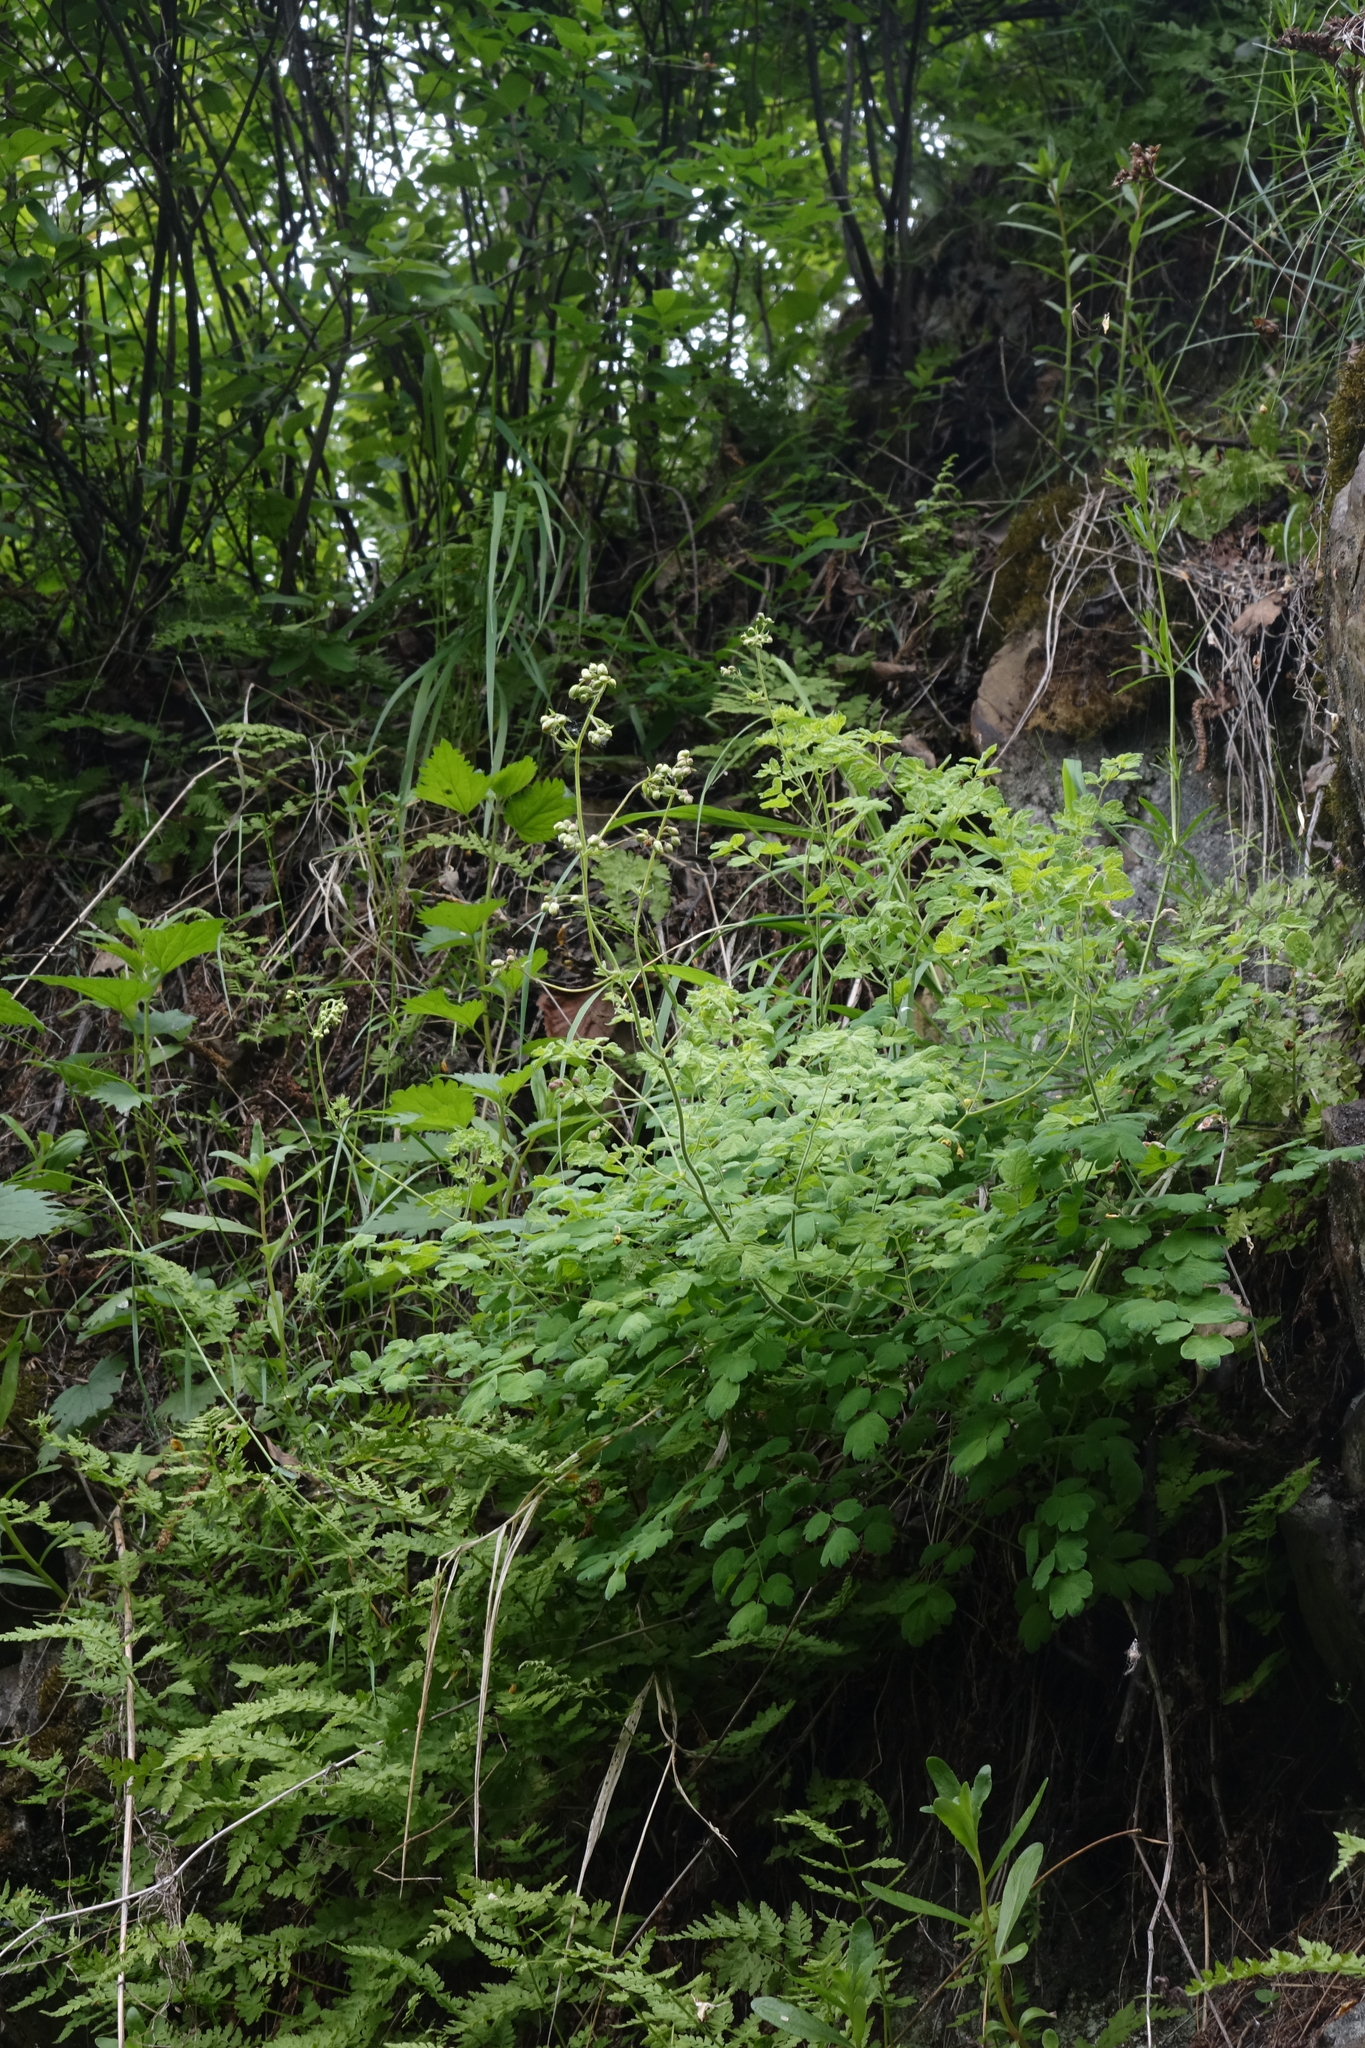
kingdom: Plantae
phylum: Tracheophyta
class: Magnoliopsida
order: Ranunculales
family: Ranunculaceae
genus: Thalictrum
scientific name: Thalictrum foetidum
